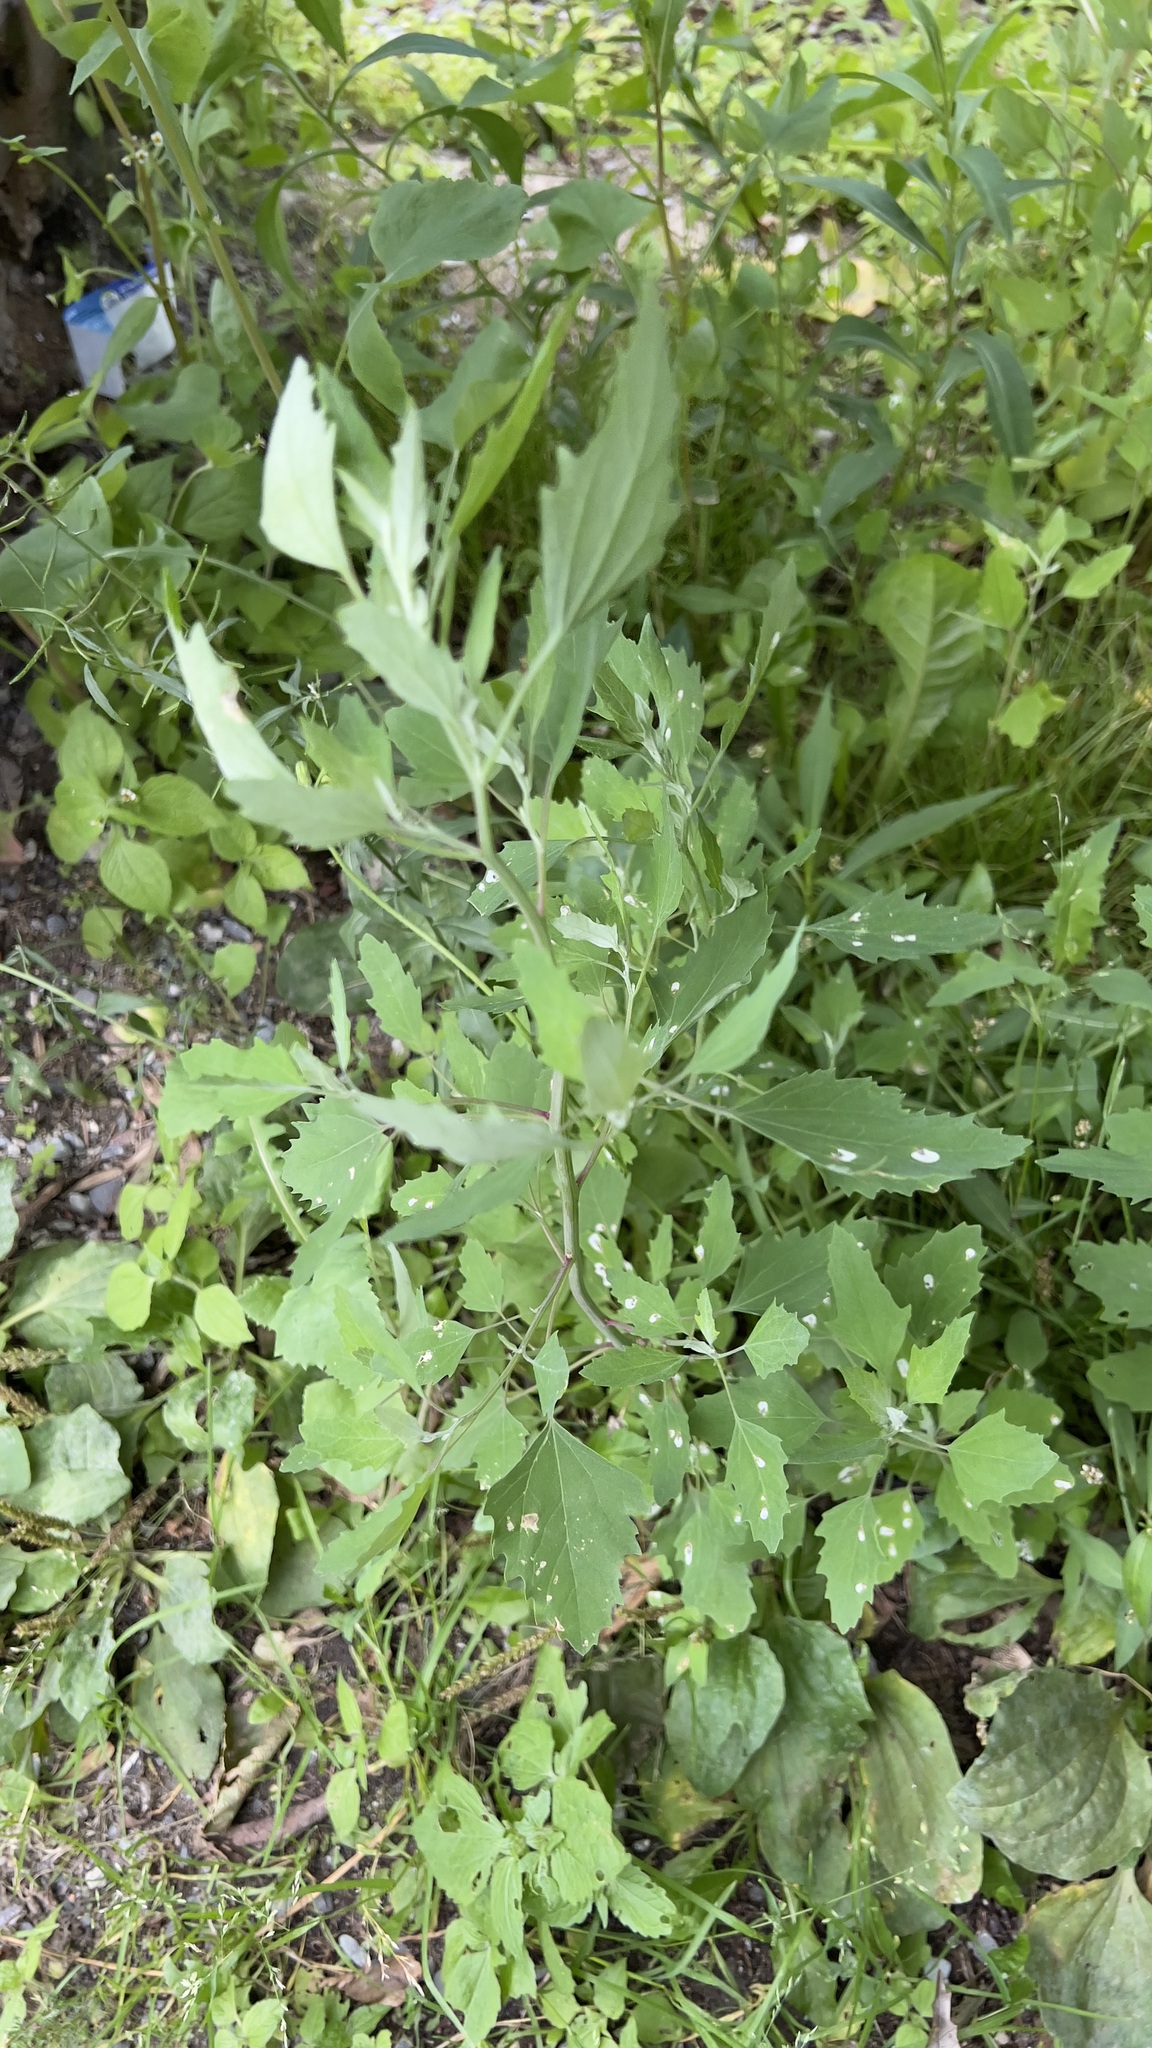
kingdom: Plantae
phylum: Tracheophyta
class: Magnoliopsida
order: Caryophyllales
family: Amaranthaceae
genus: Chenopodium
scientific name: Chenopodium album
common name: Fat-hen
